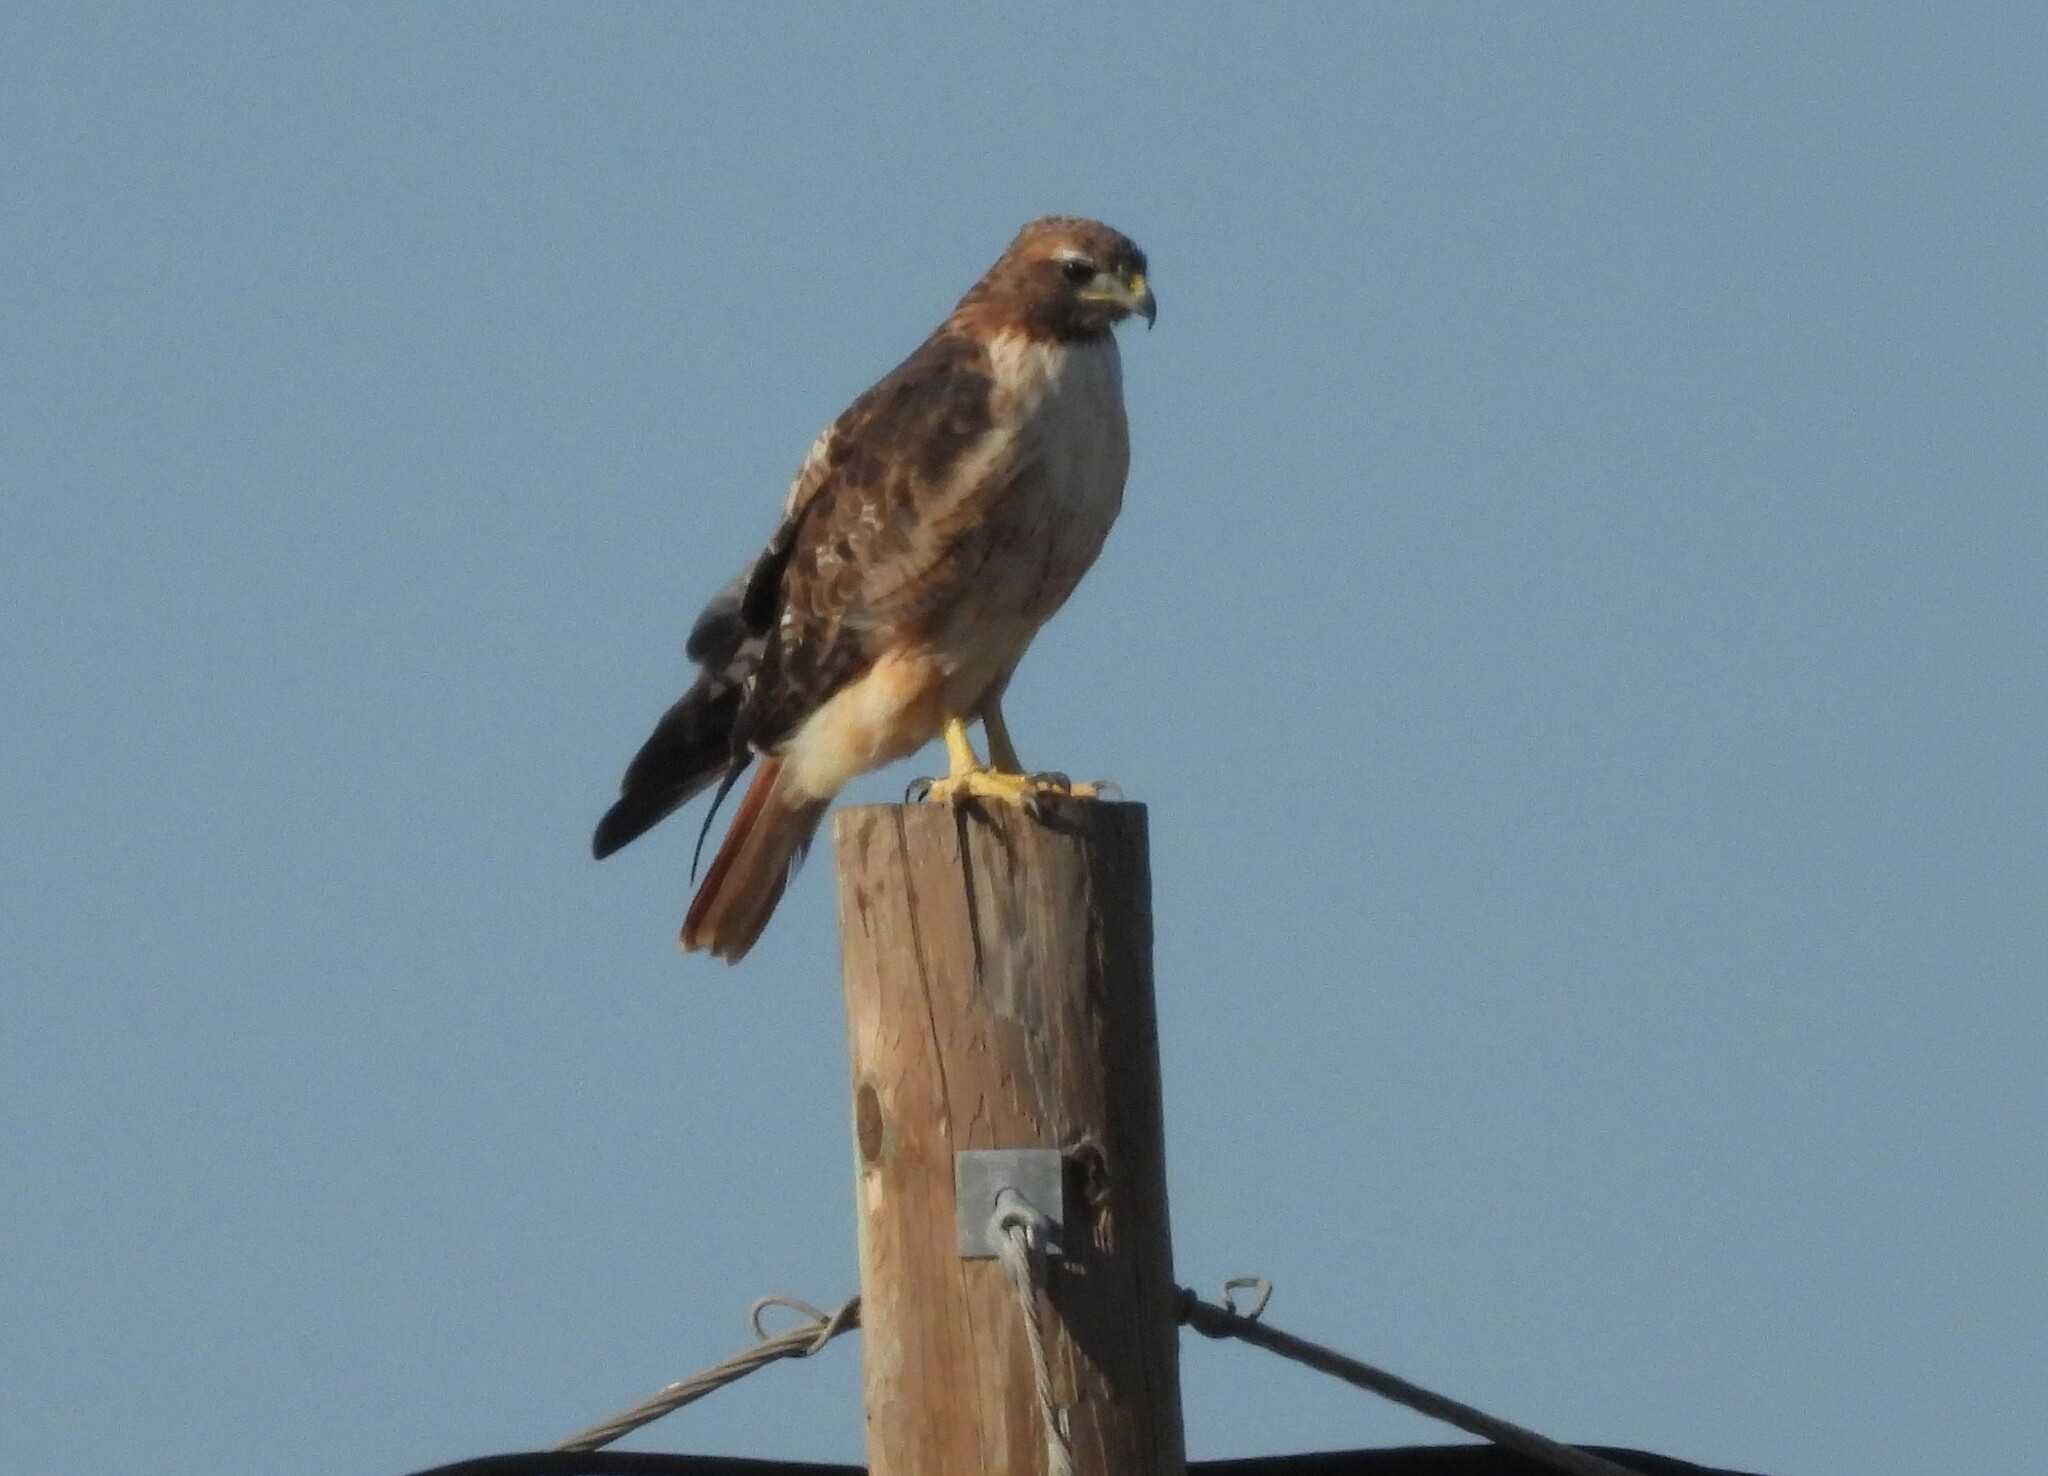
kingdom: Animalia
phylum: Chordata
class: Aves
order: Accipitriformes
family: Accipitridae
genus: Buteo
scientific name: Buteo jamaicensis
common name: Red-tailed hawk
